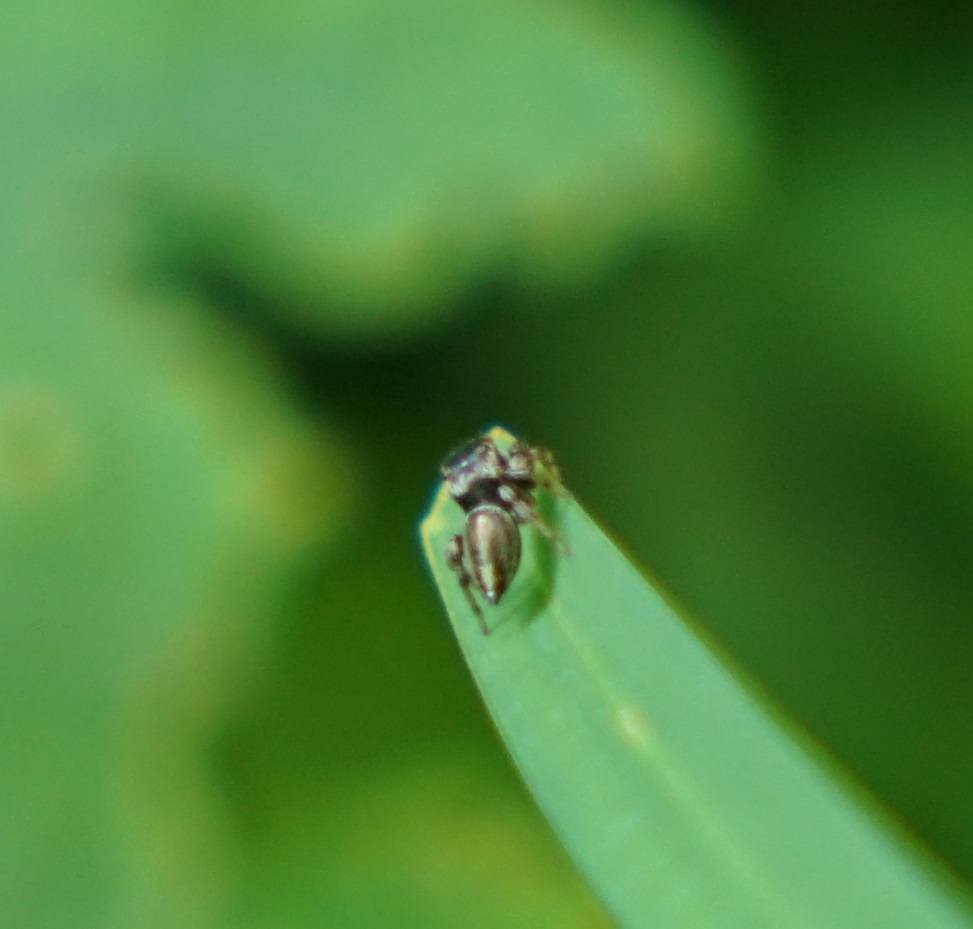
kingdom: Animalia
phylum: Arthropoda
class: Arachnida
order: Araneae
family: Salticidae
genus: Maratus
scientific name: Maratus scutulatus
